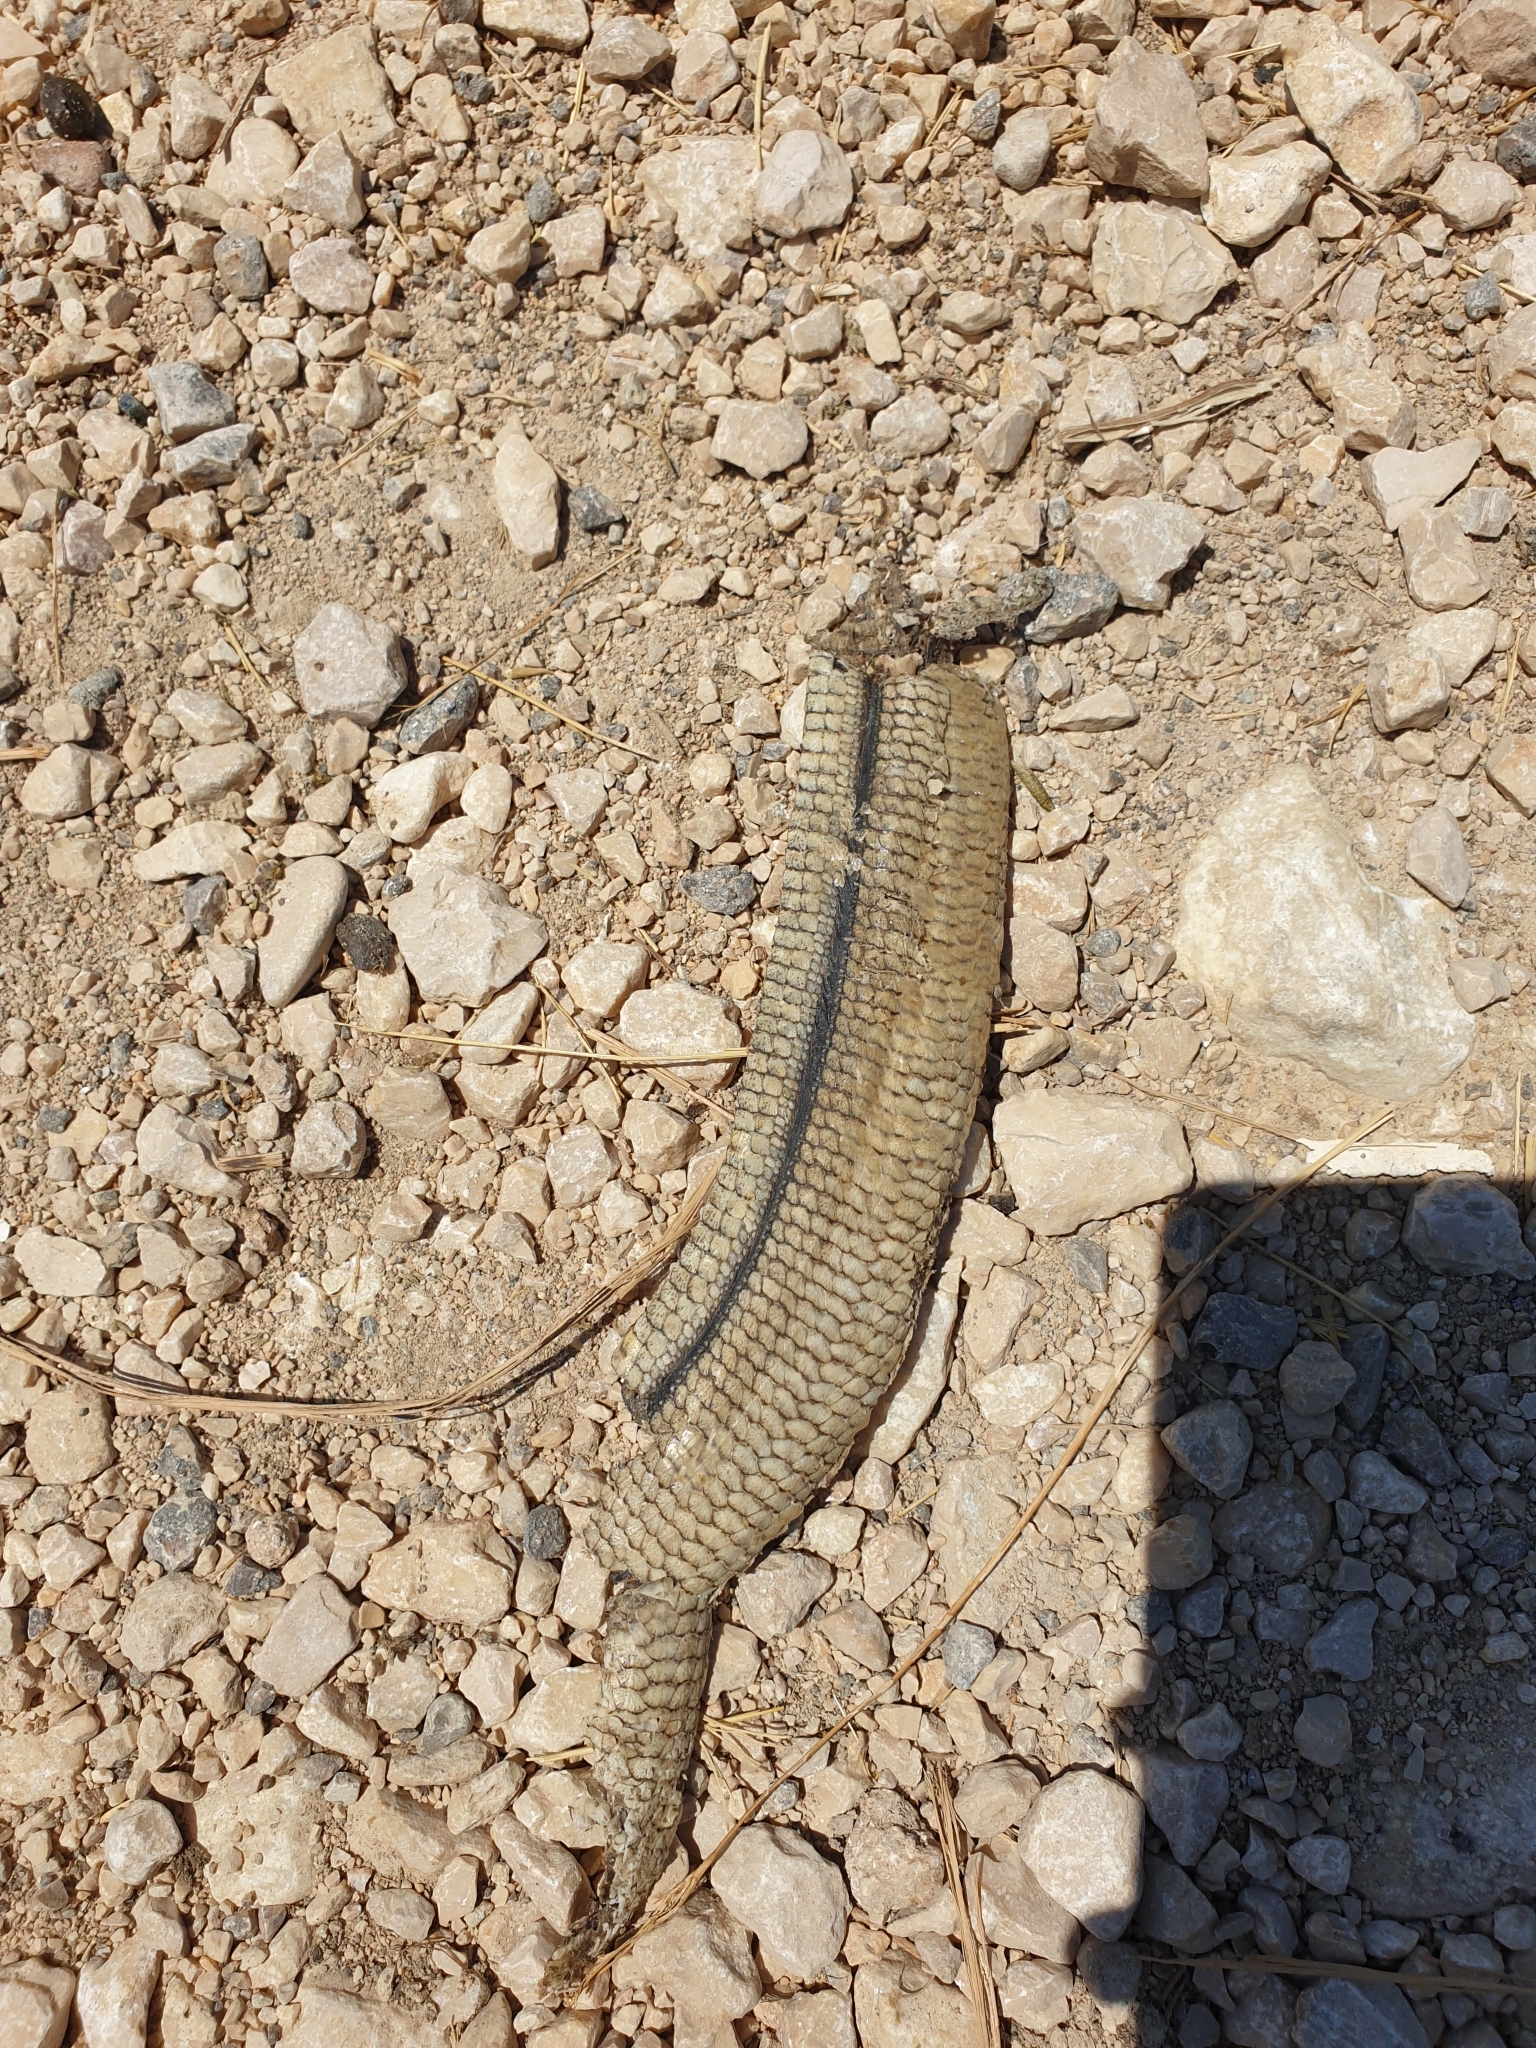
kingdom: Animalia
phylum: Chordata
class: Squamata
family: Anguidae
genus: Pseudopus
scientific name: Pseudopus apodus
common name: European glass lizard
